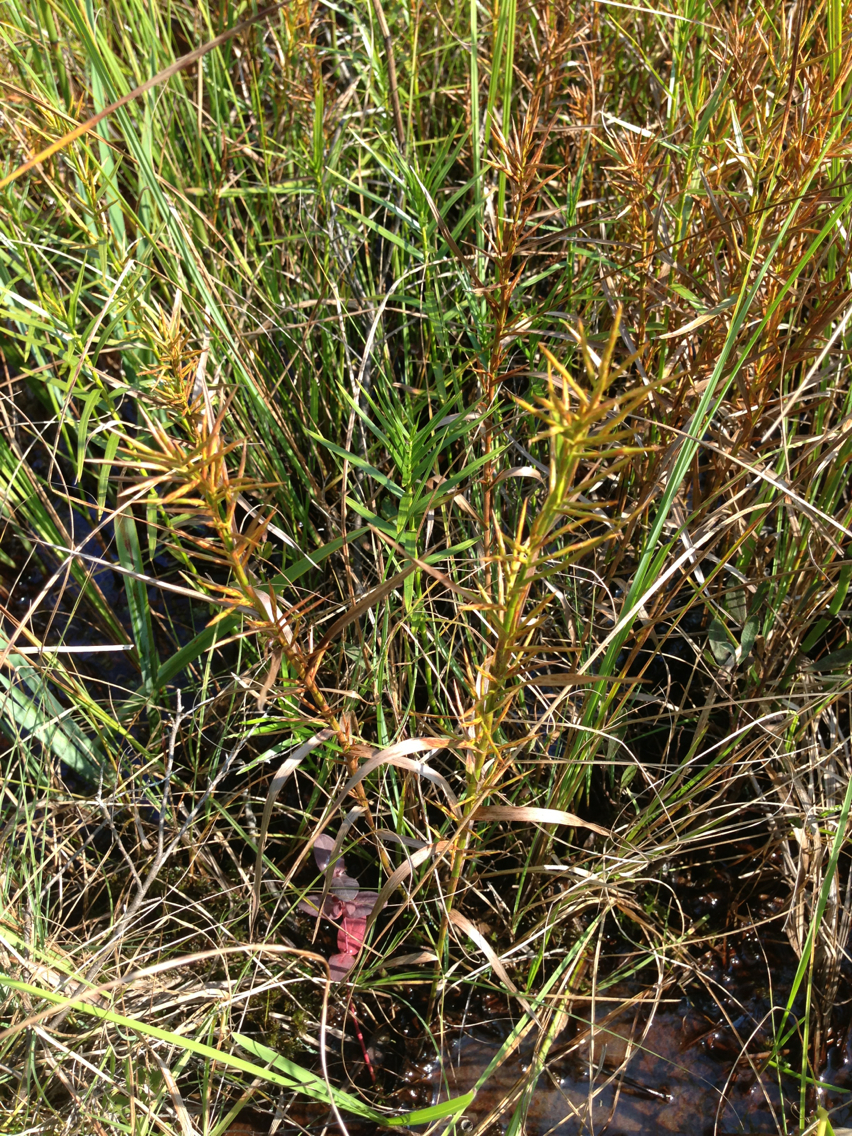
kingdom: Plantae
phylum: Tracheophyta
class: Liliopsida
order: Poales
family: Cyperaceae
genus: Dulichium
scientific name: Dulichium arundinaceum
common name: Three-way sedge
